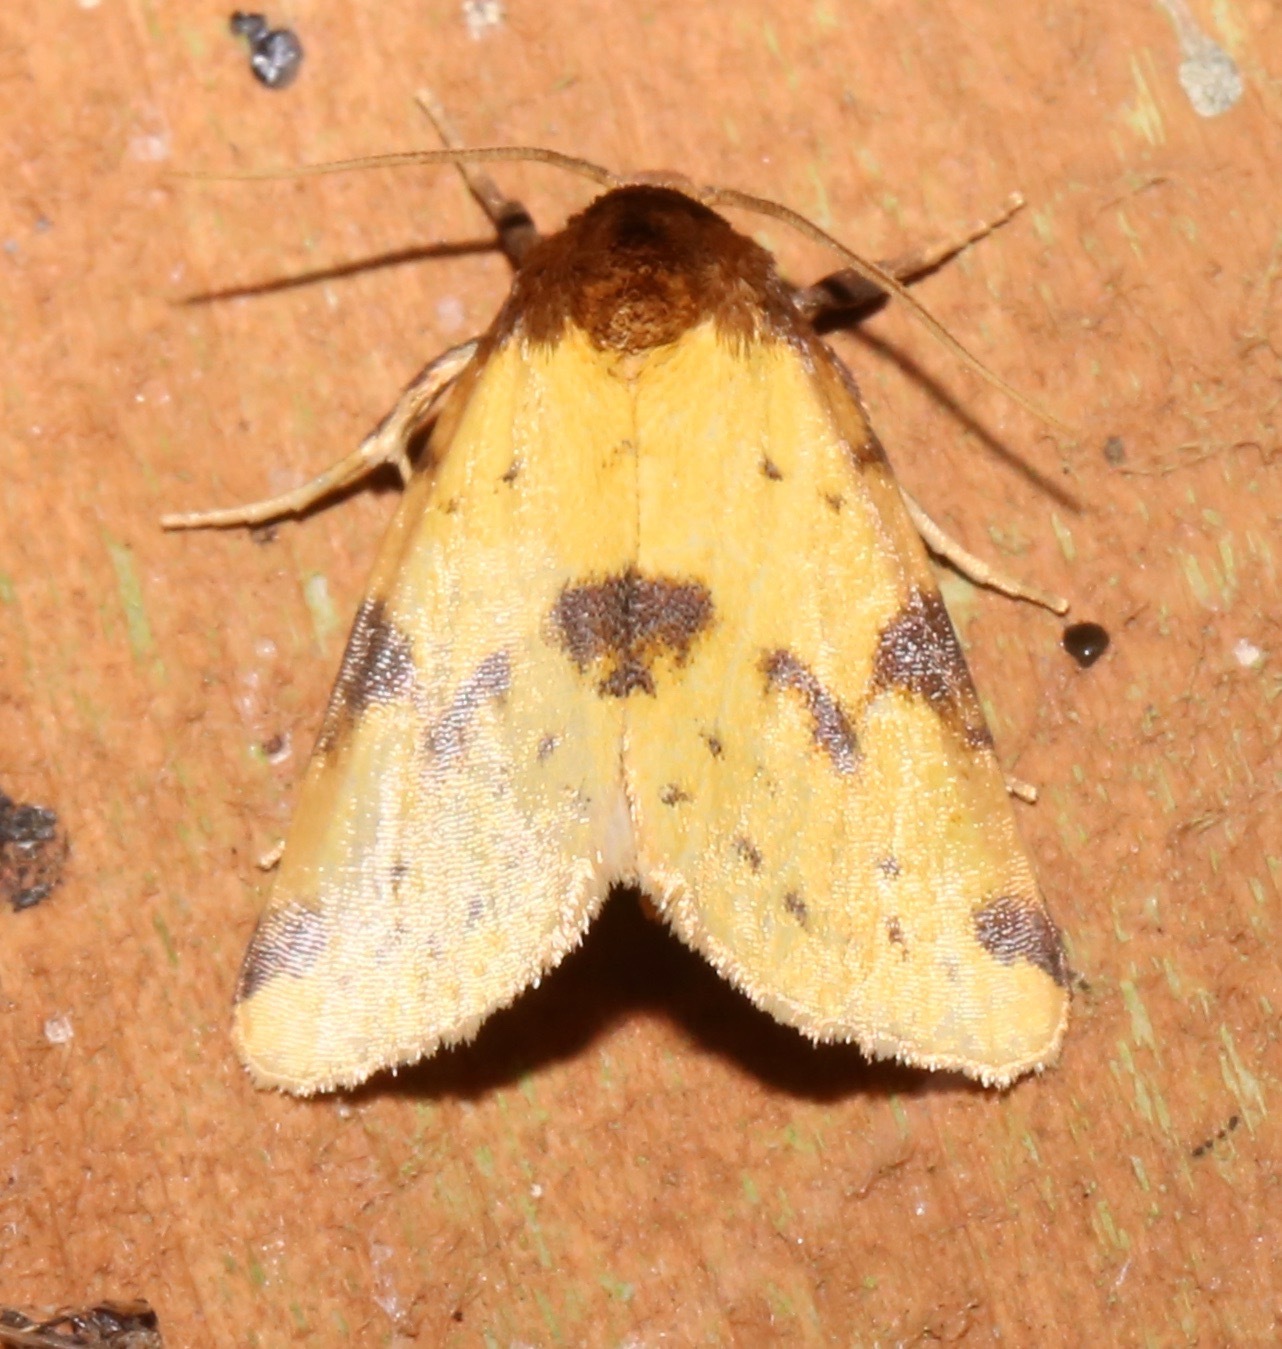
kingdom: Animalia
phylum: Arthropoda
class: Insecta
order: Lepidoptera
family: Noctuidae
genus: Azenia
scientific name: Azenia obtusa
